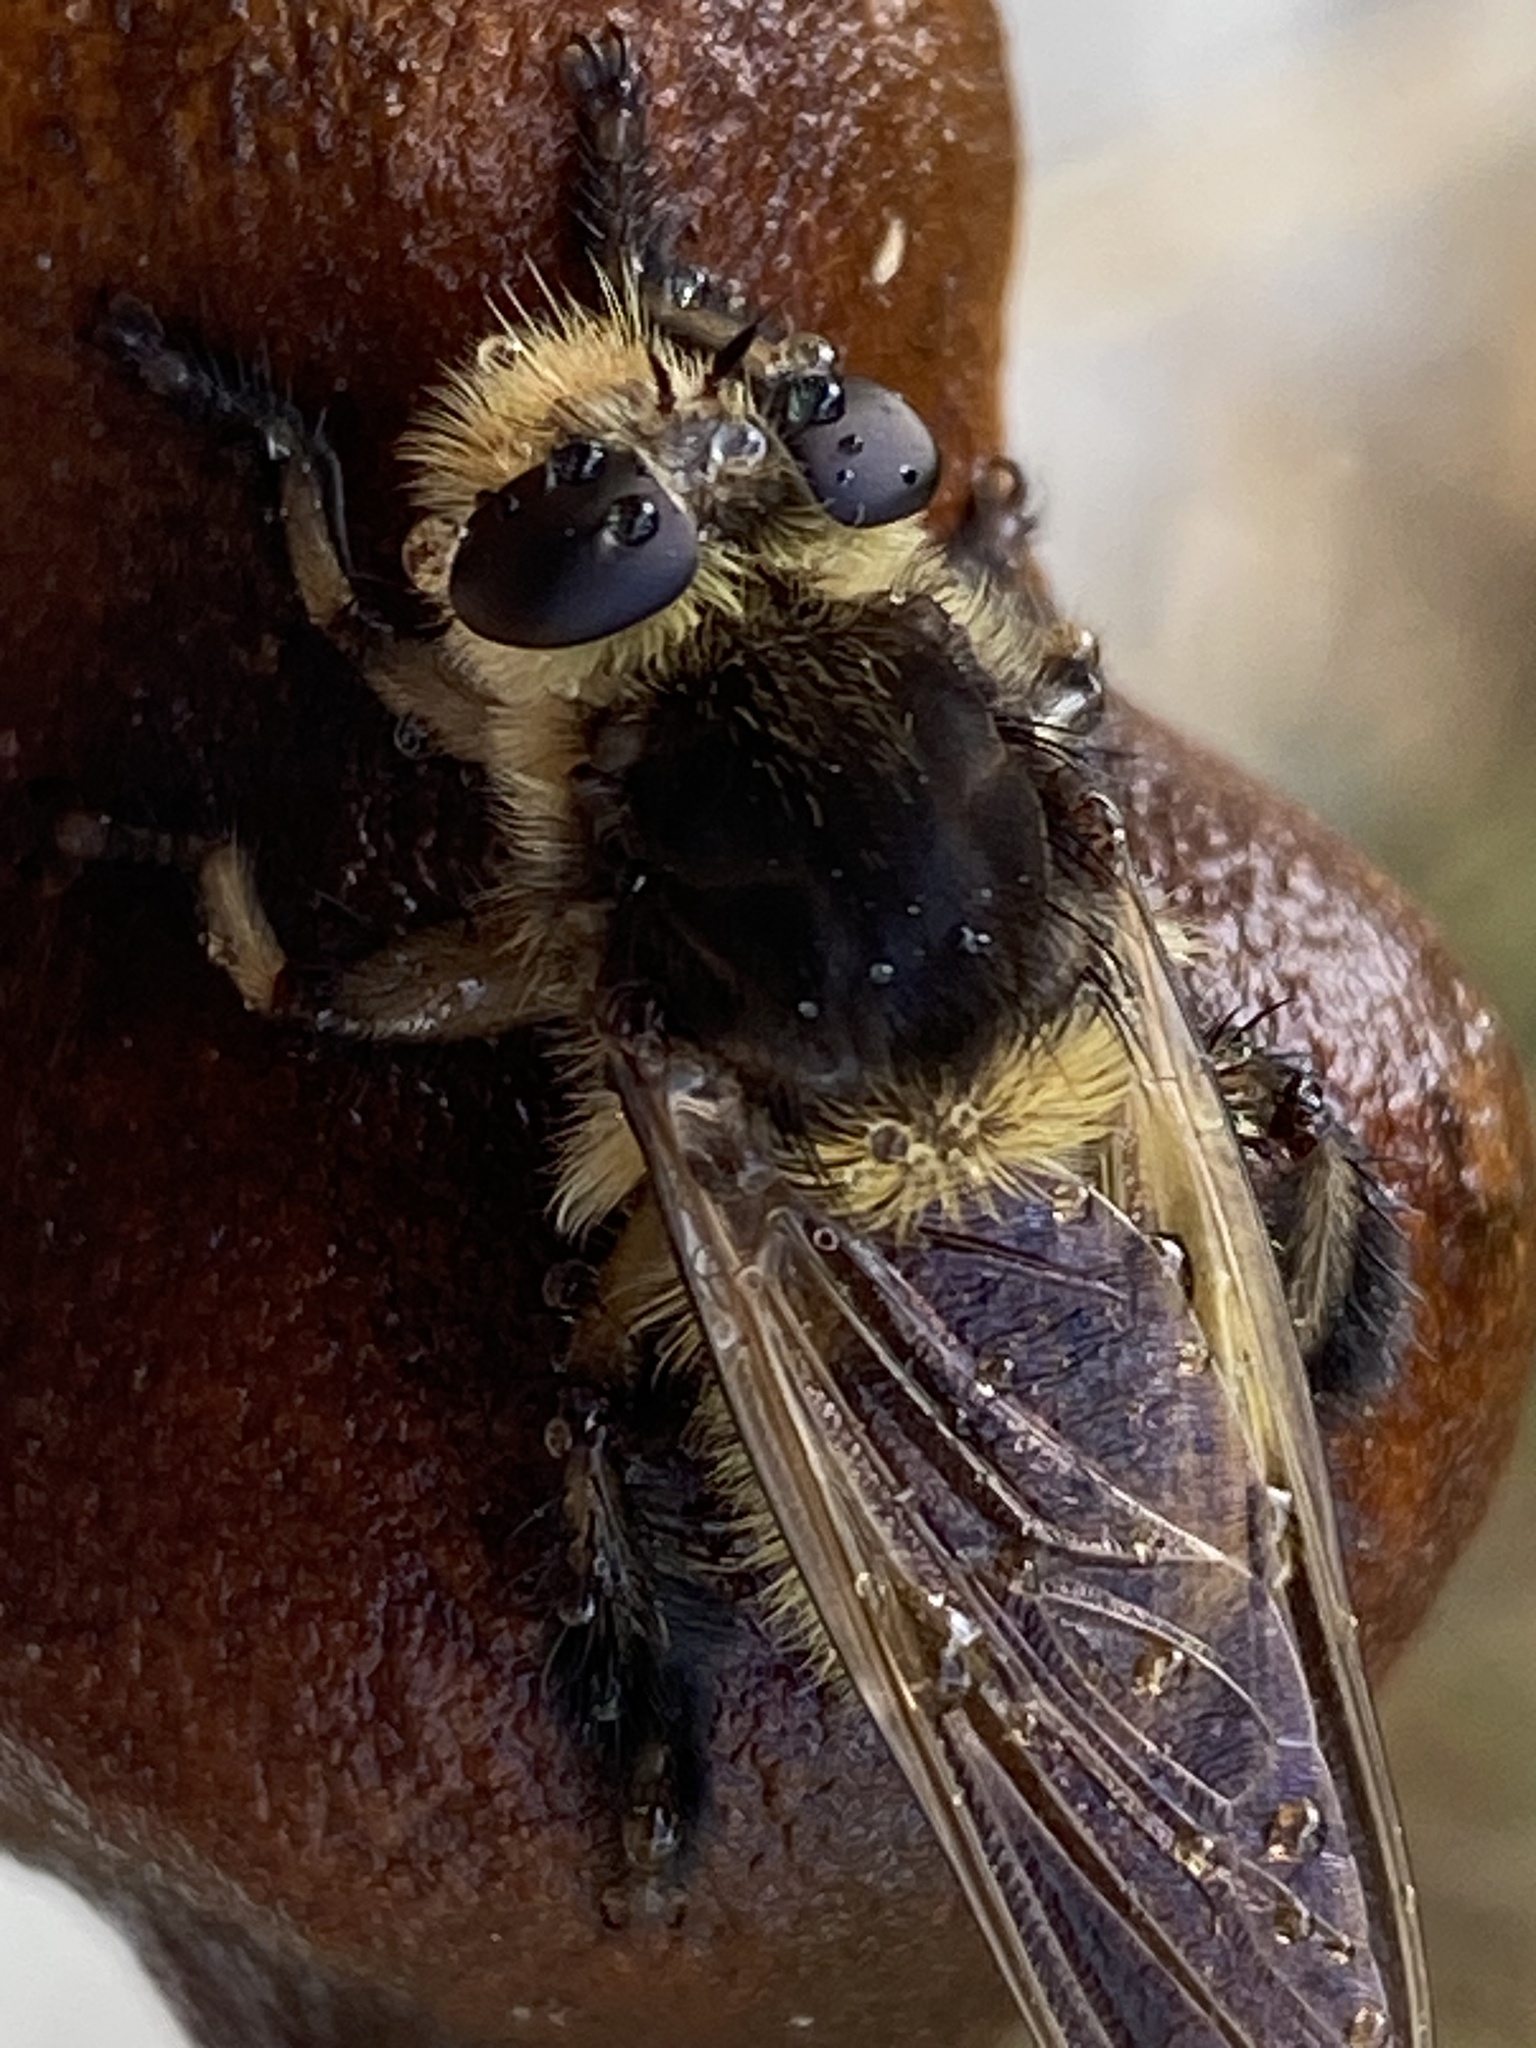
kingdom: Animalia
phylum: Arthropoda
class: Insecta
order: Diptera
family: Asilidae
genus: Mallophora
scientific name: Mallophora fautrix
